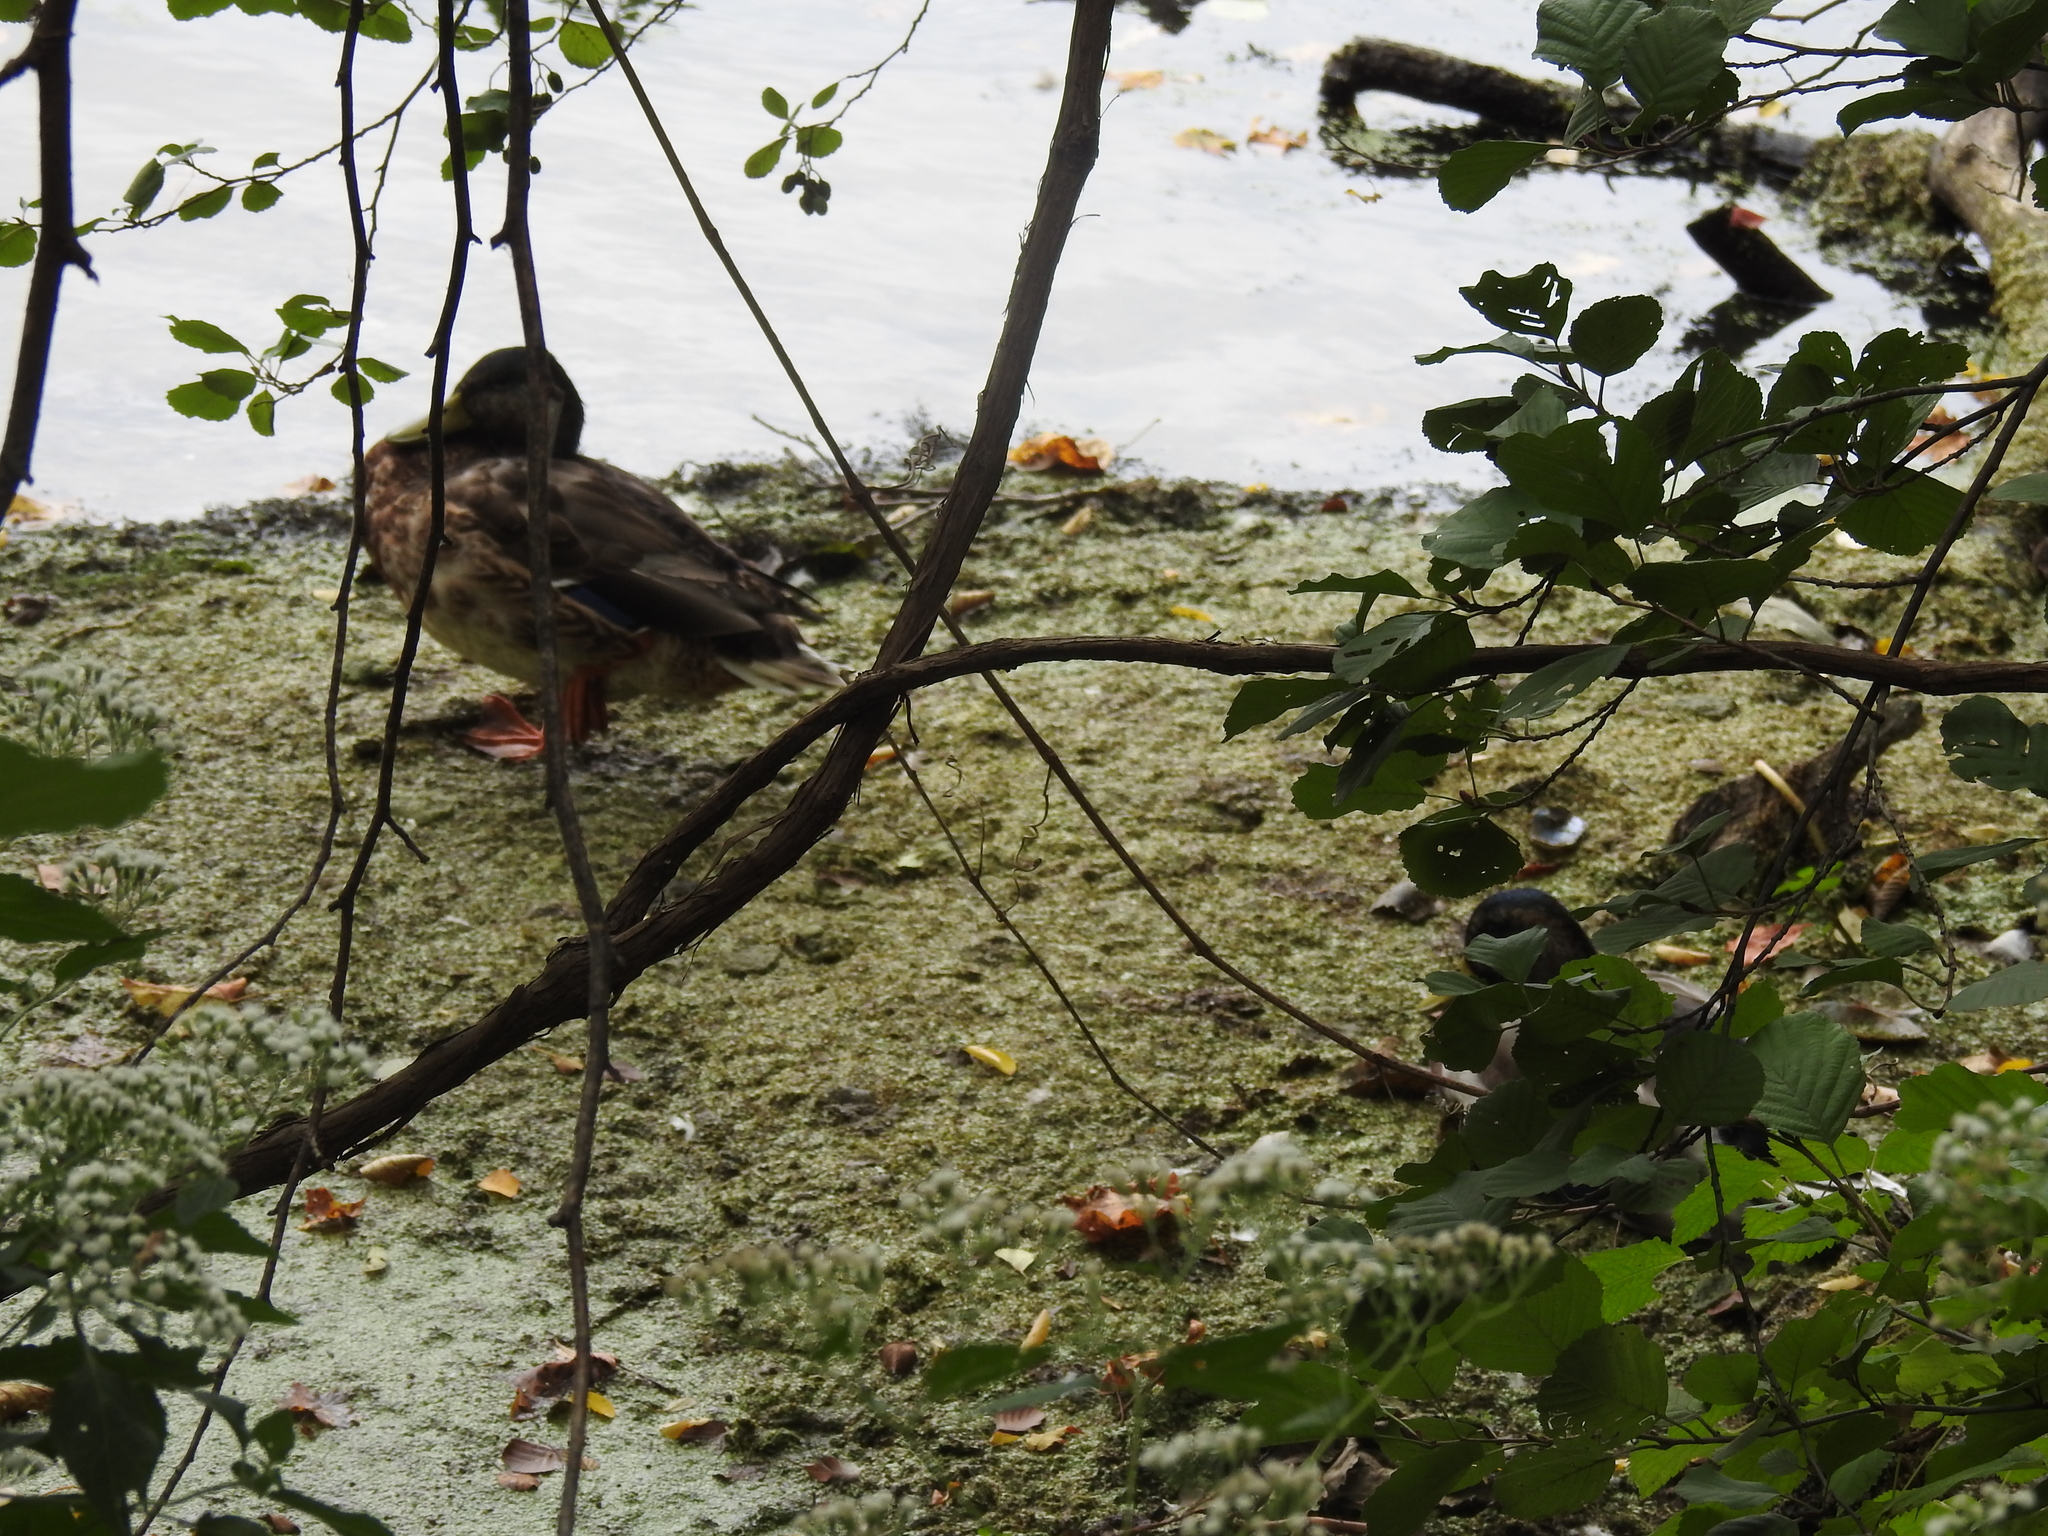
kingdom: Animalia
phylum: Chordata
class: Aves
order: Anseriformes
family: Anatidae
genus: Anas
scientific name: Anas platyrhynchos
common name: Mallard
